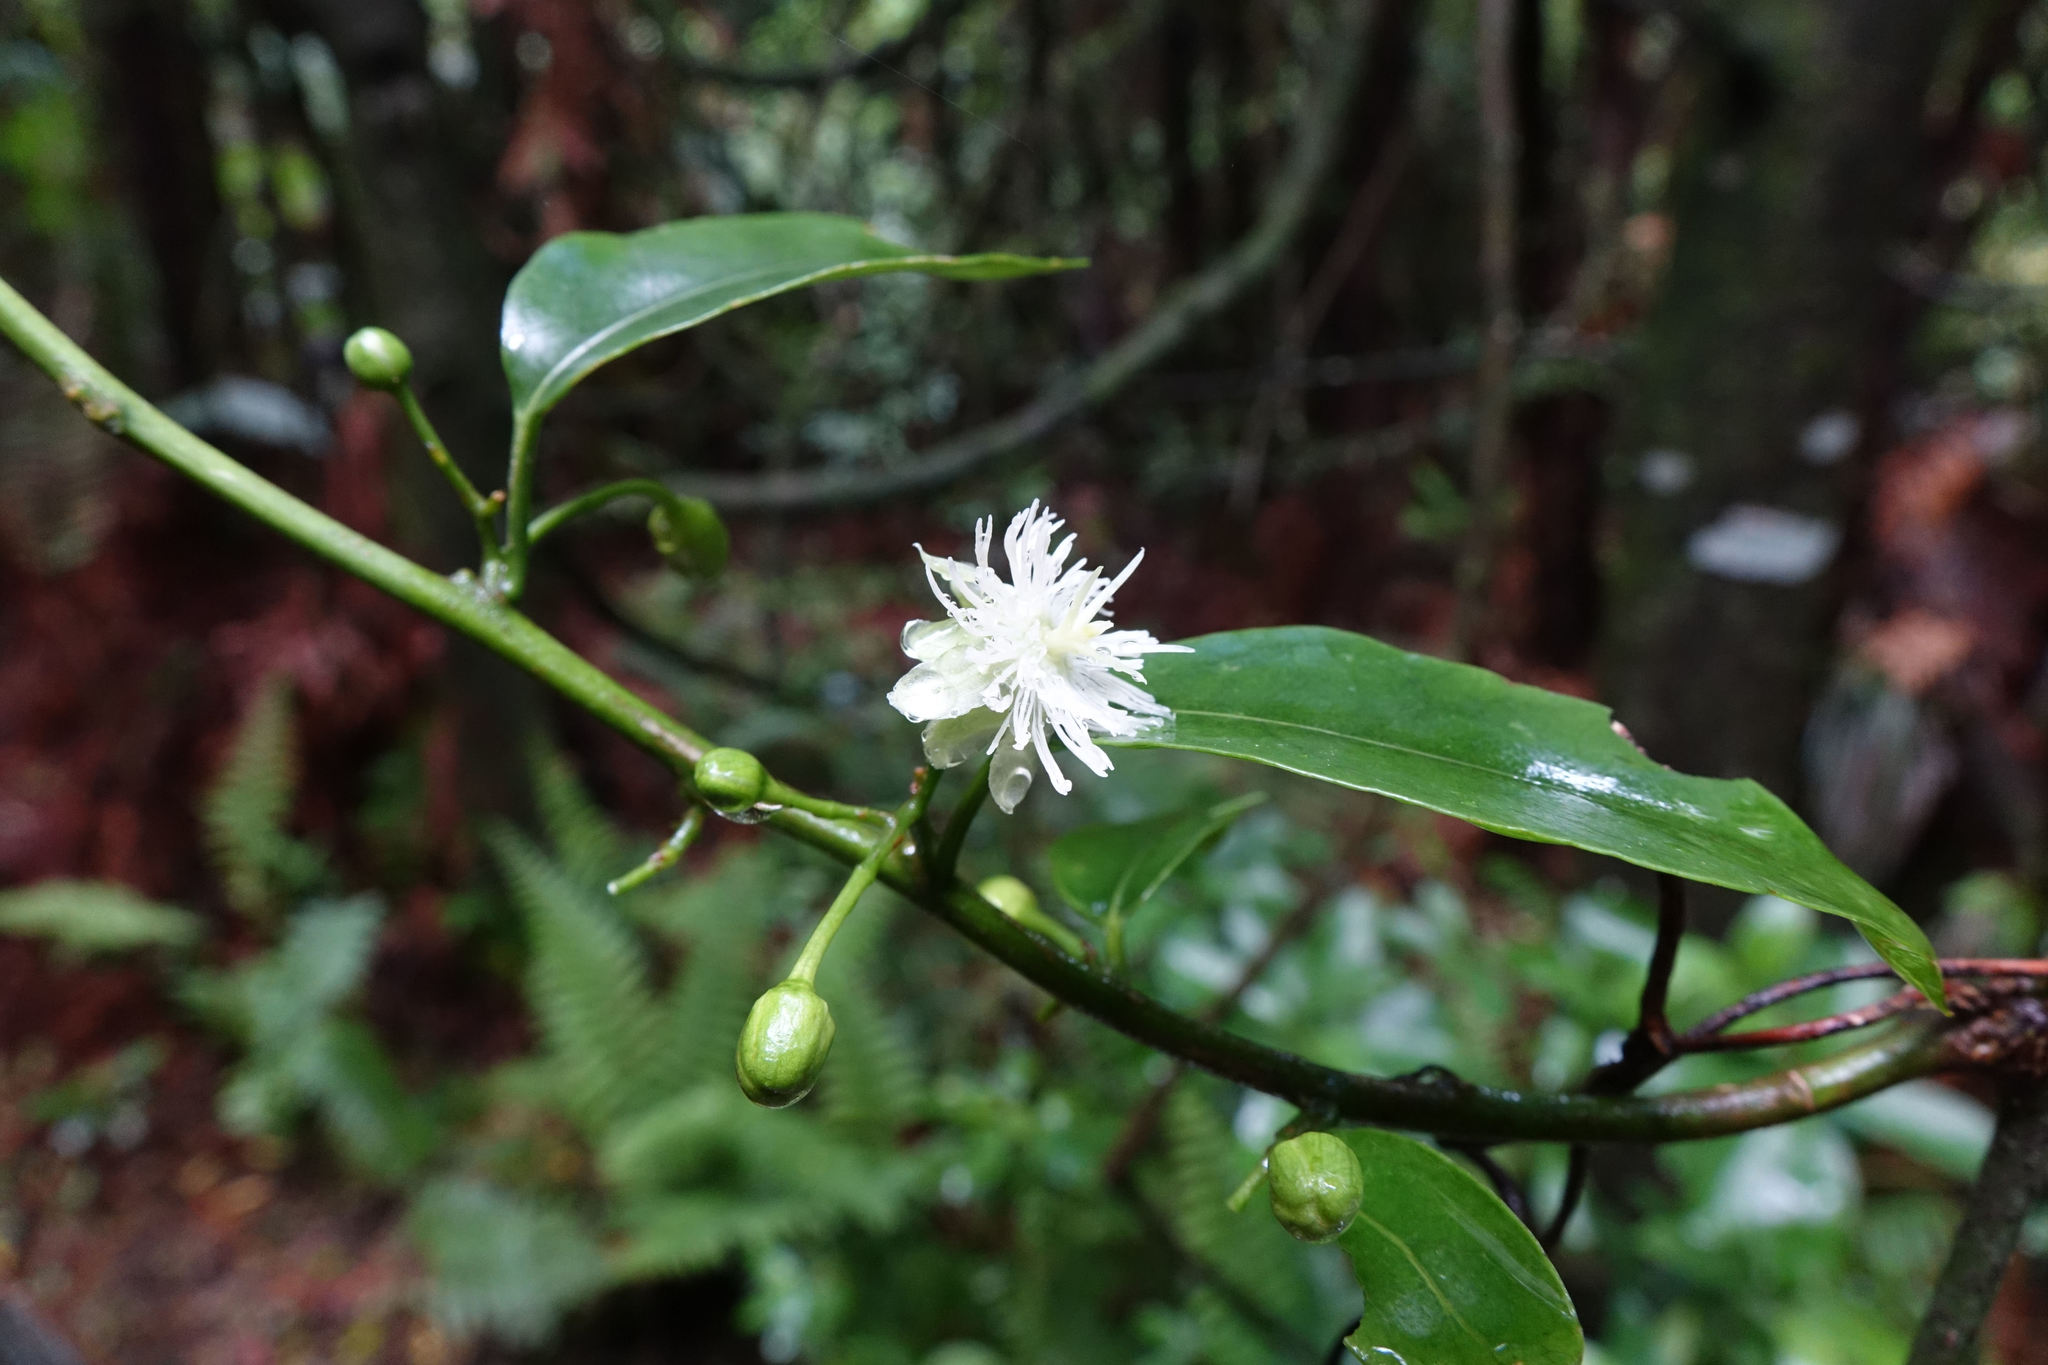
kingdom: Plantae
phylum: Tracheophyta
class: Magnoliopsida
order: Malpighiales
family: Passifloraceae
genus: Passiflora
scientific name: Passiflora tetrandra
